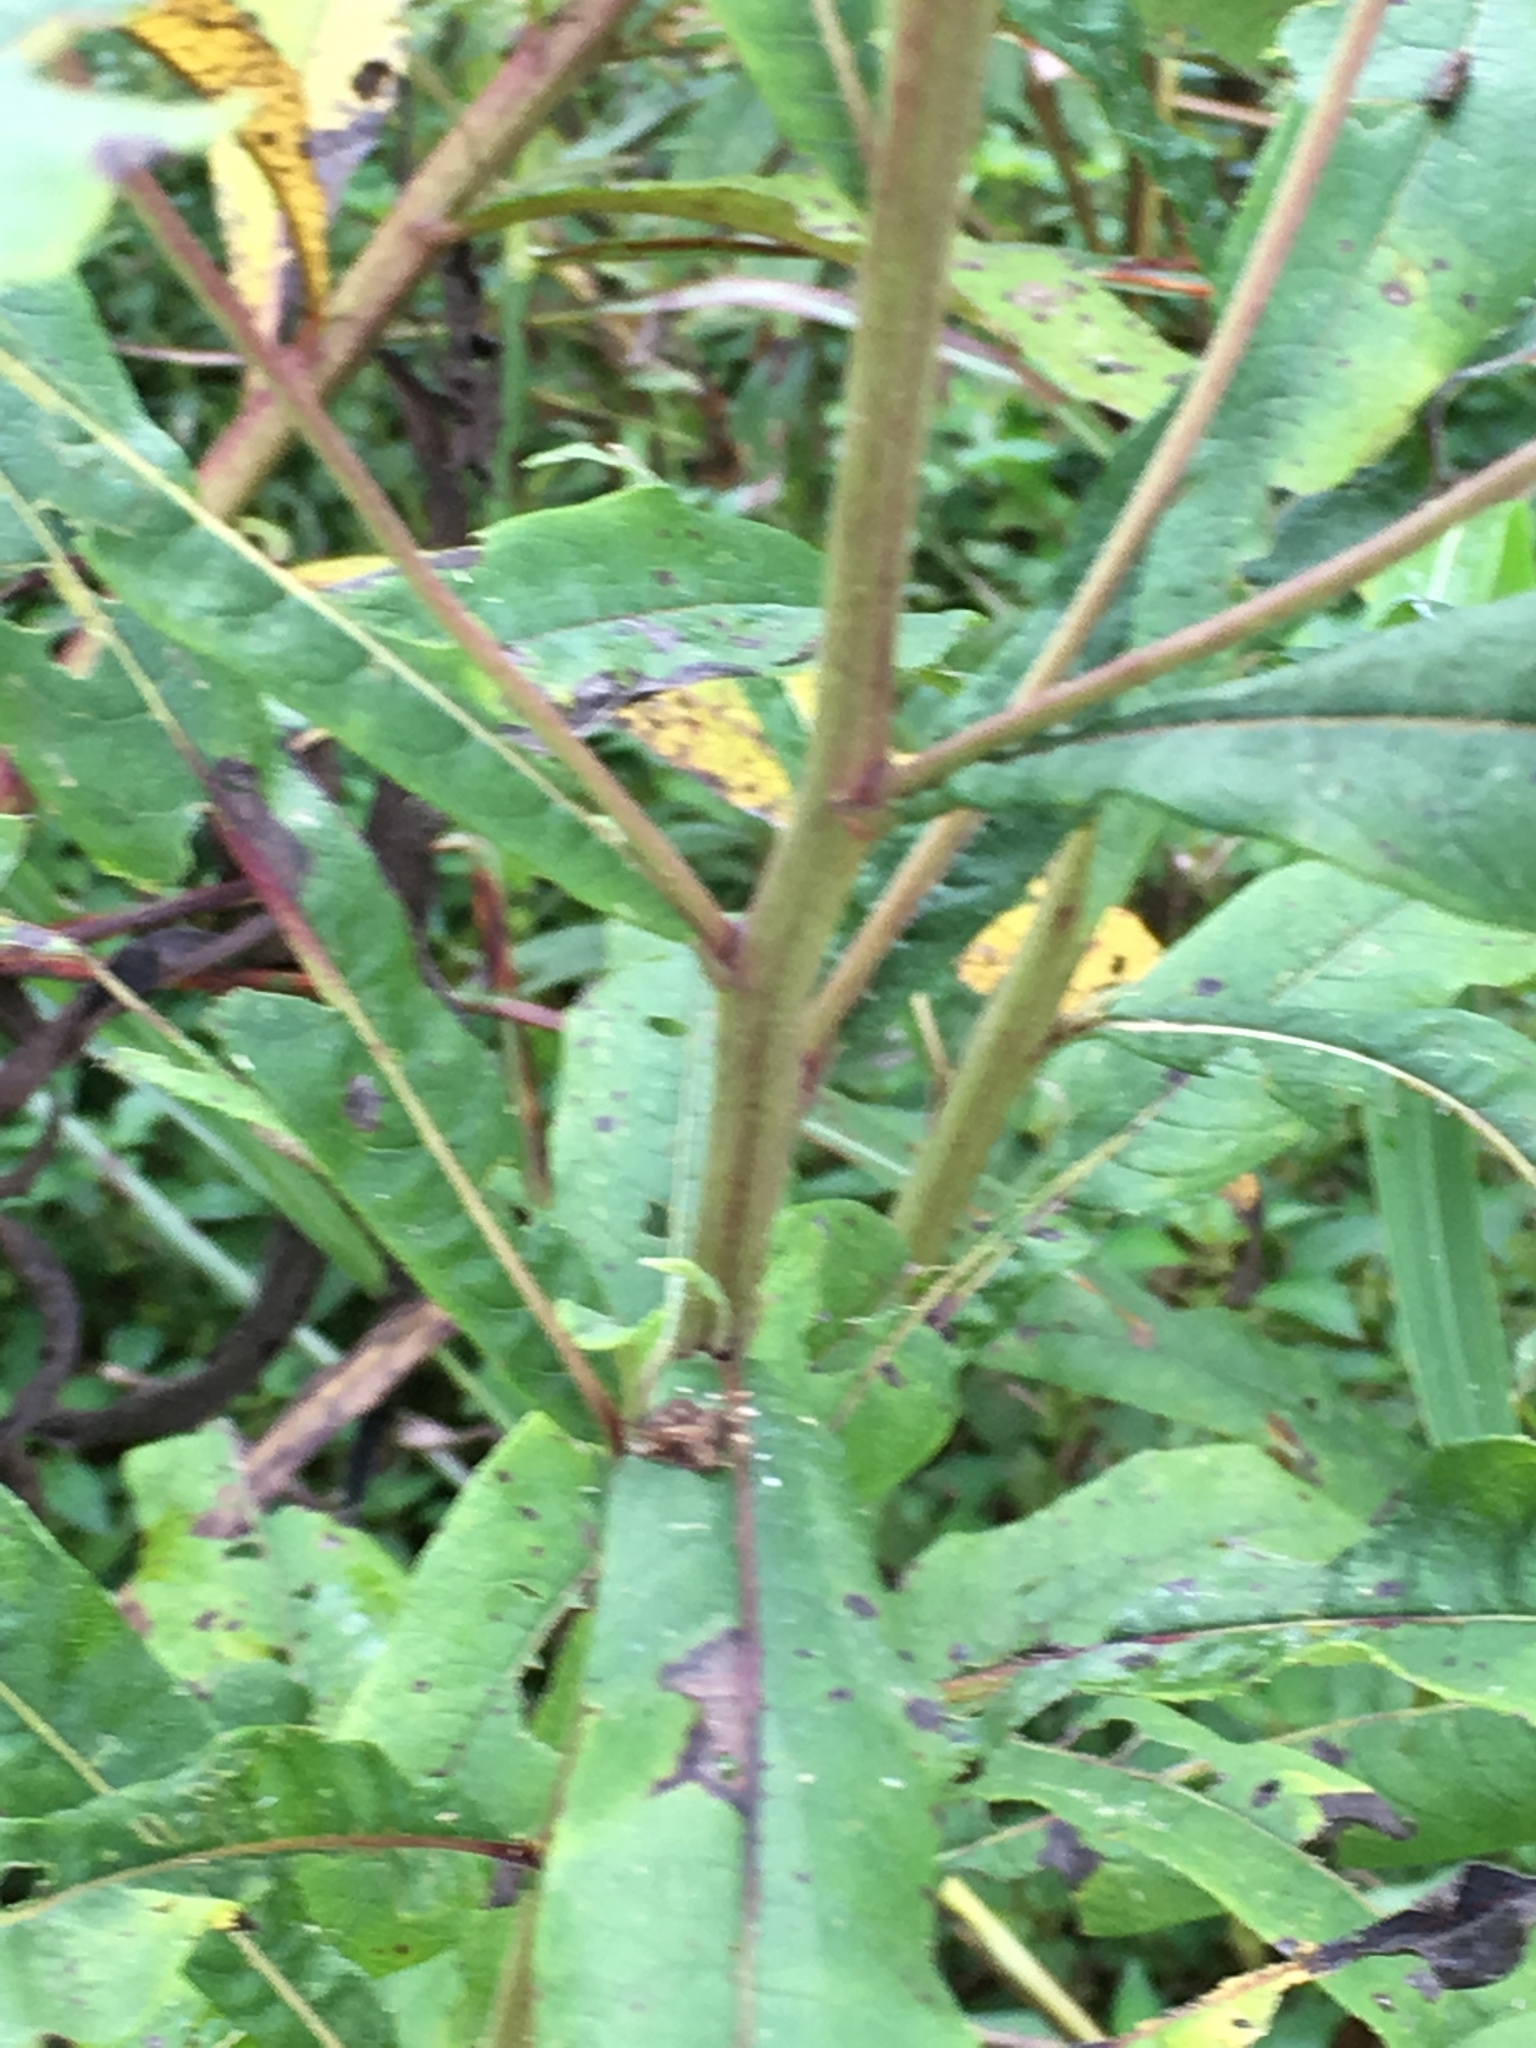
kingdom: Plantae
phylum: Tracheophyta
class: Magnoliopsida
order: Asterales
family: Asteraceae
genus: Vernonia
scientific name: Vernonia noveboracensis
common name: New york ironweed
